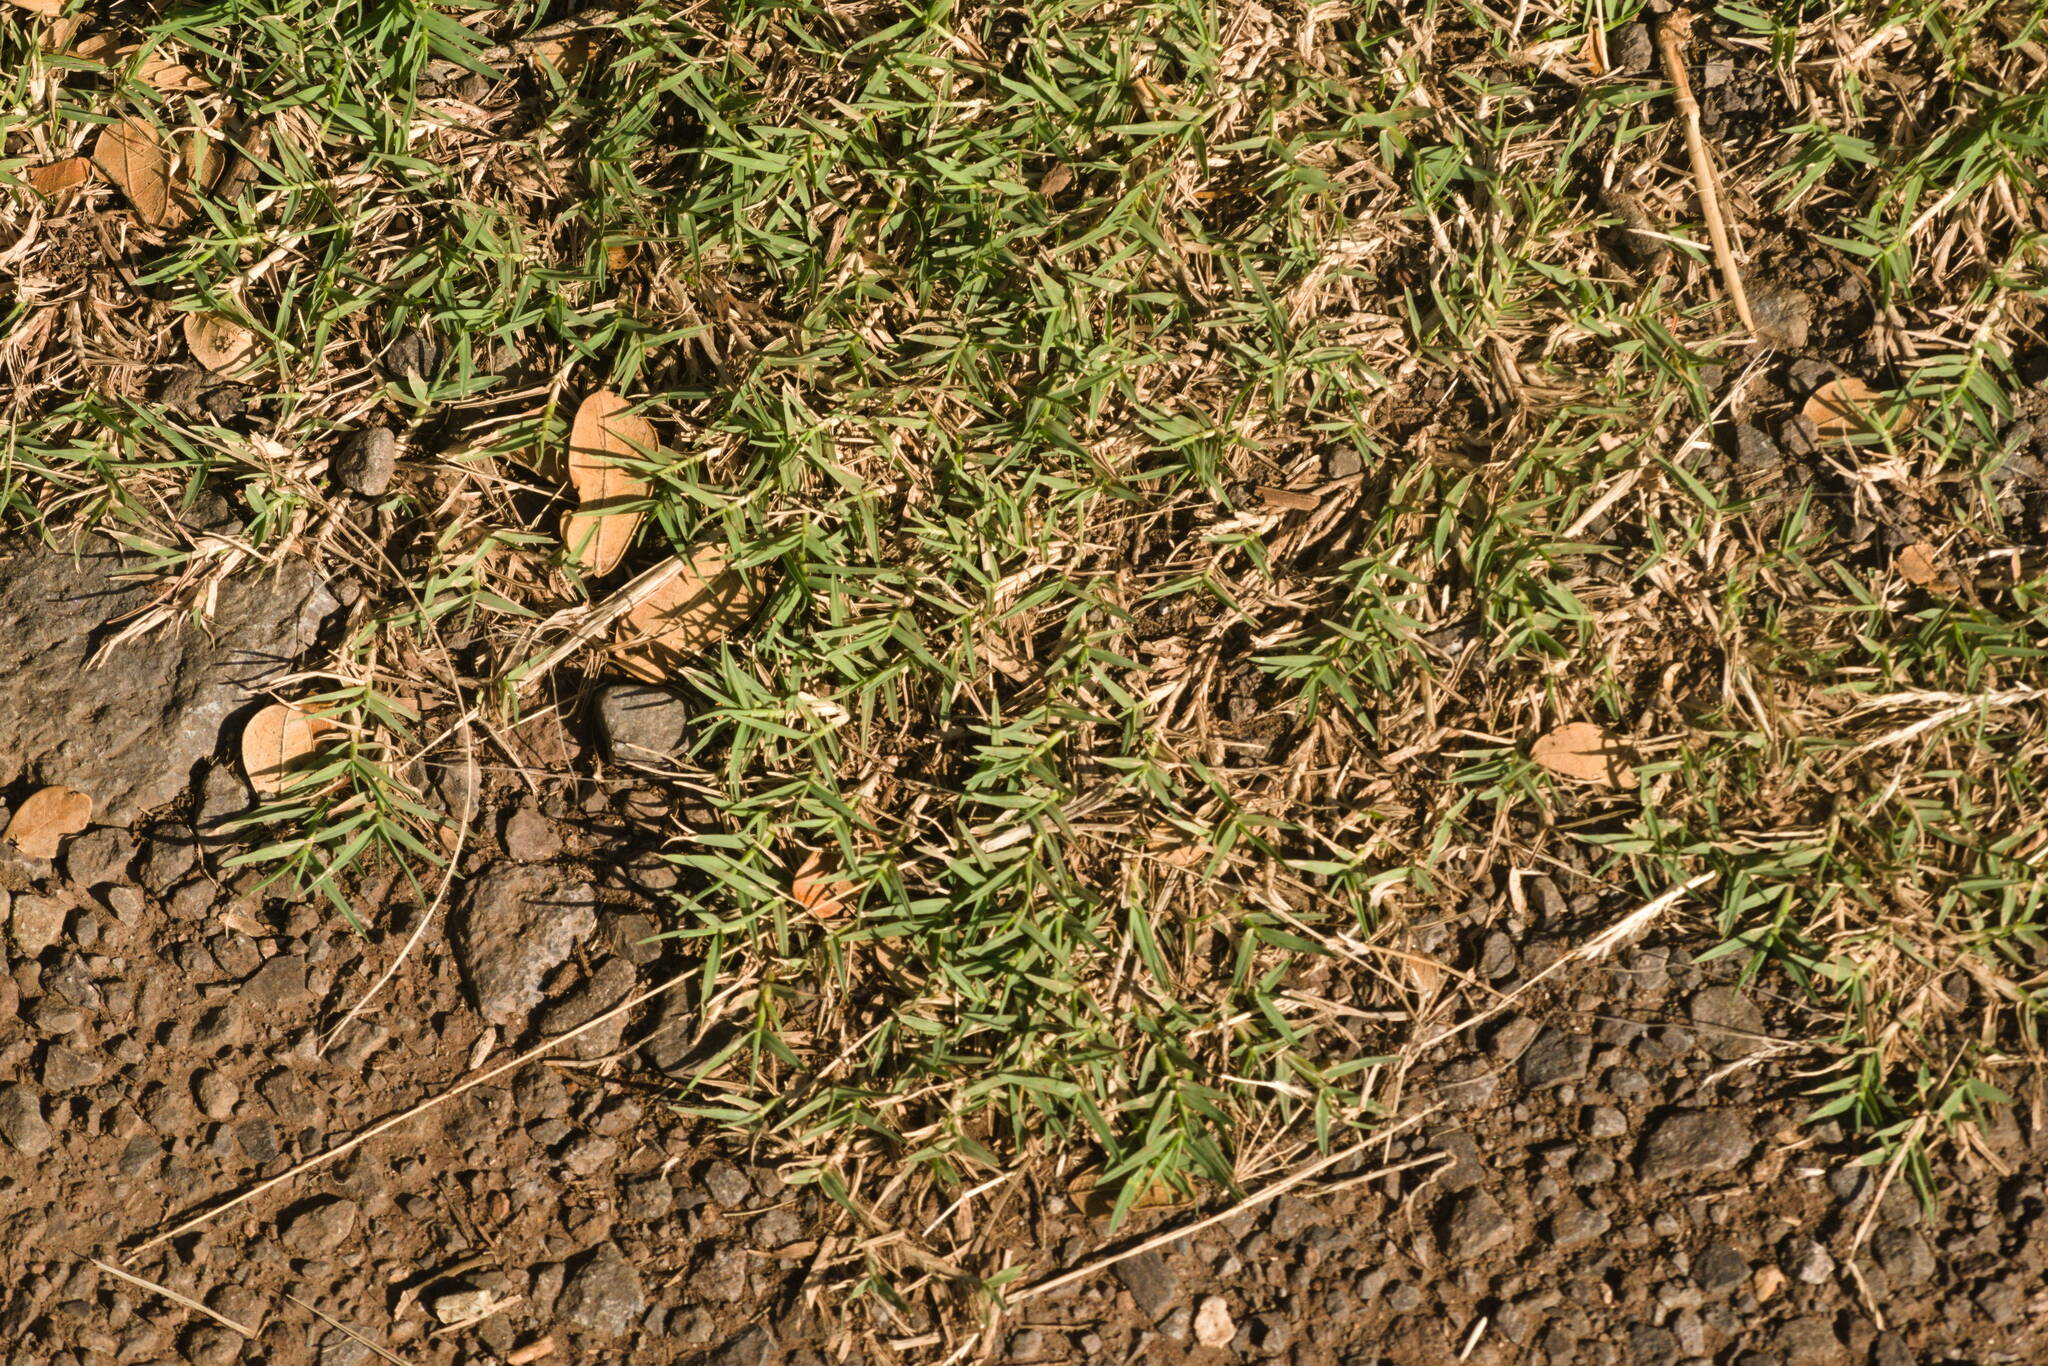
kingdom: Plantae
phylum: Tracheophyta
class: Liliopsida
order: Poales
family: Poaceae
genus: Cynodon
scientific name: Cynodon dactylon
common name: Bermuda grass
